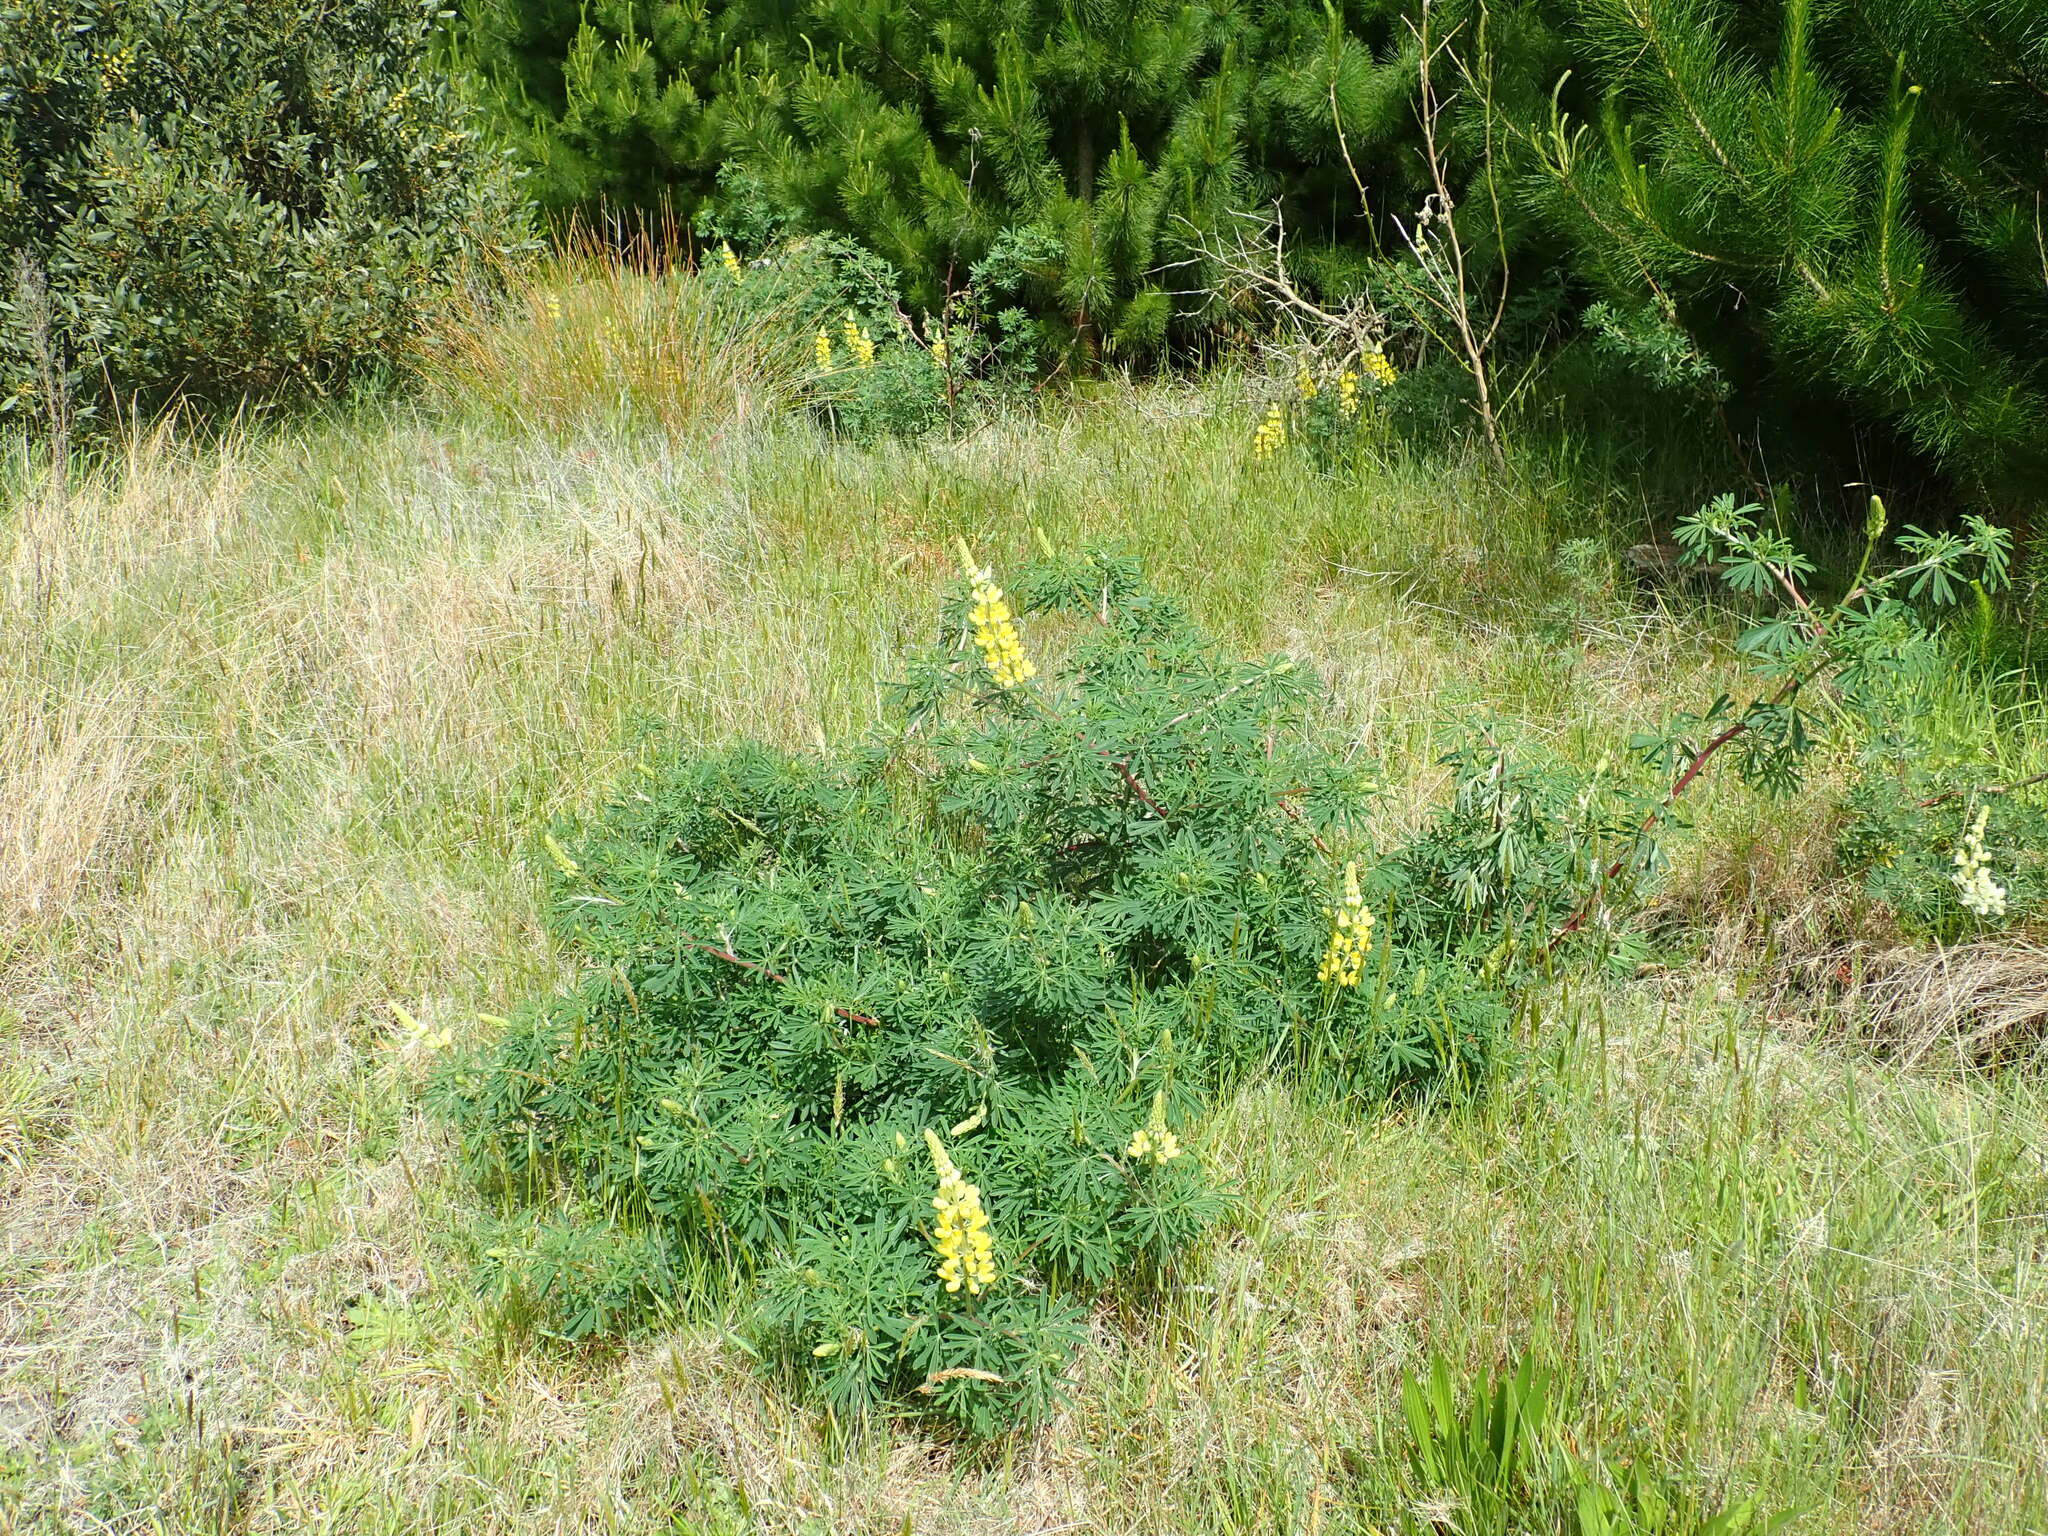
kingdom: Plantae
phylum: Tracheophyta
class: Magnoliopsida
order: Fabales
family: Fabaceae
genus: Lupinus
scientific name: Lupinus arboreus
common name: Yellow bush lupine
